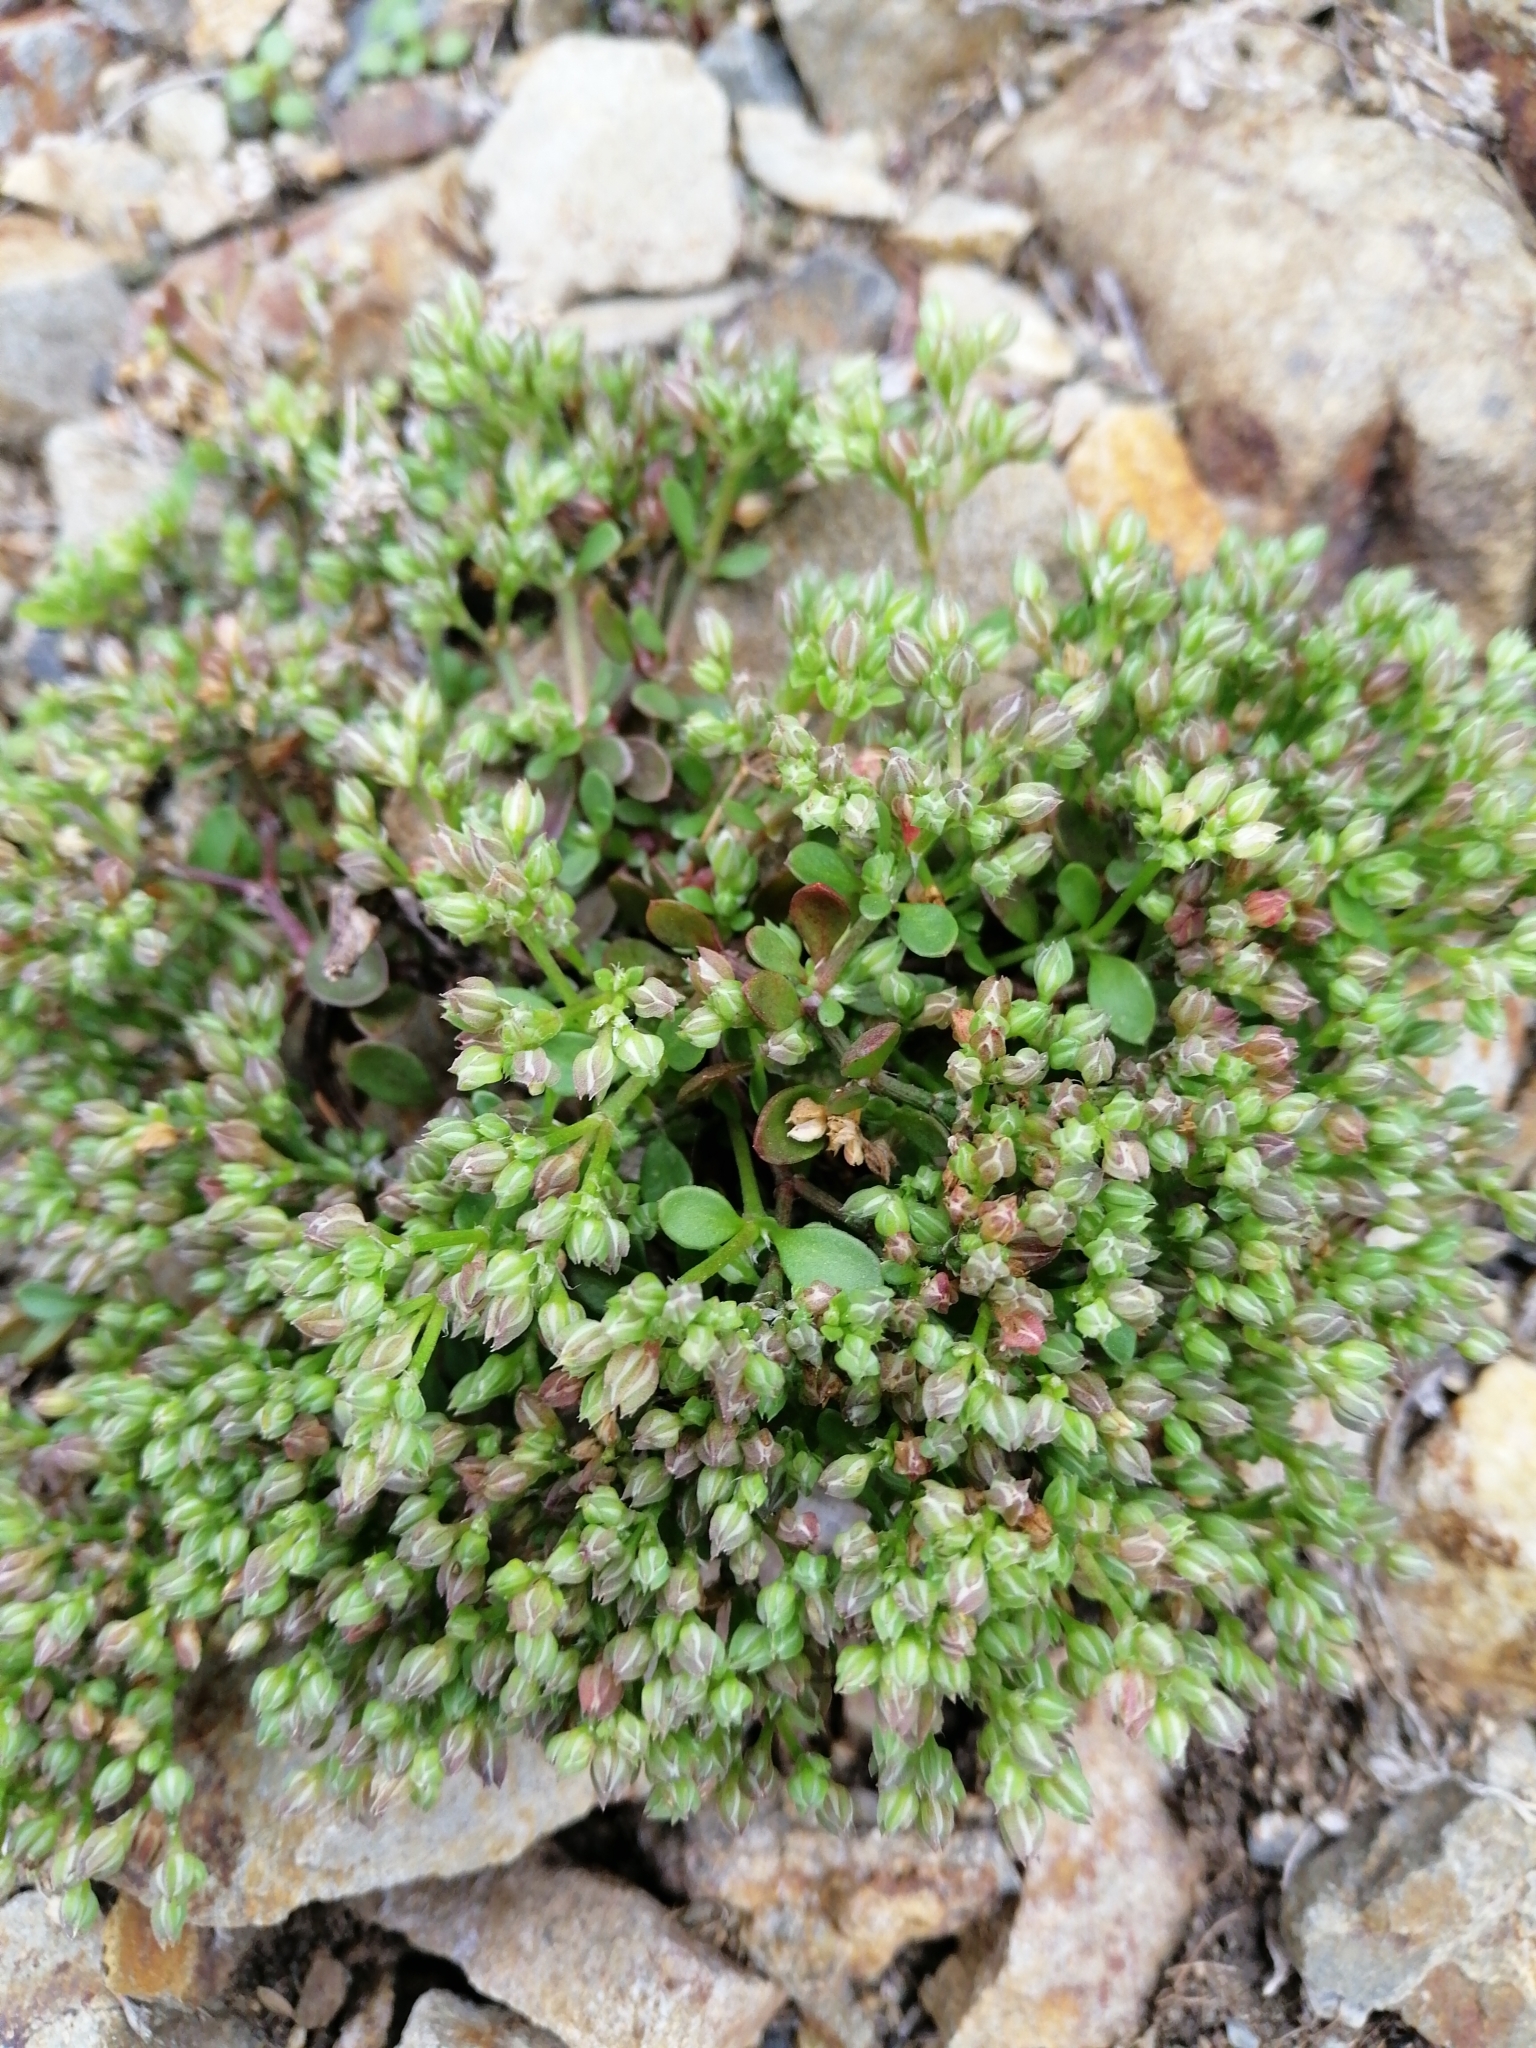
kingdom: Plantae
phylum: Tracheophyta
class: Magnoliopsida
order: Caryophyllales
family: Caryophyllaceae
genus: Polycarpon
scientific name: Polycarpon tetraphyllum
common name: Four-leaved all-seed
